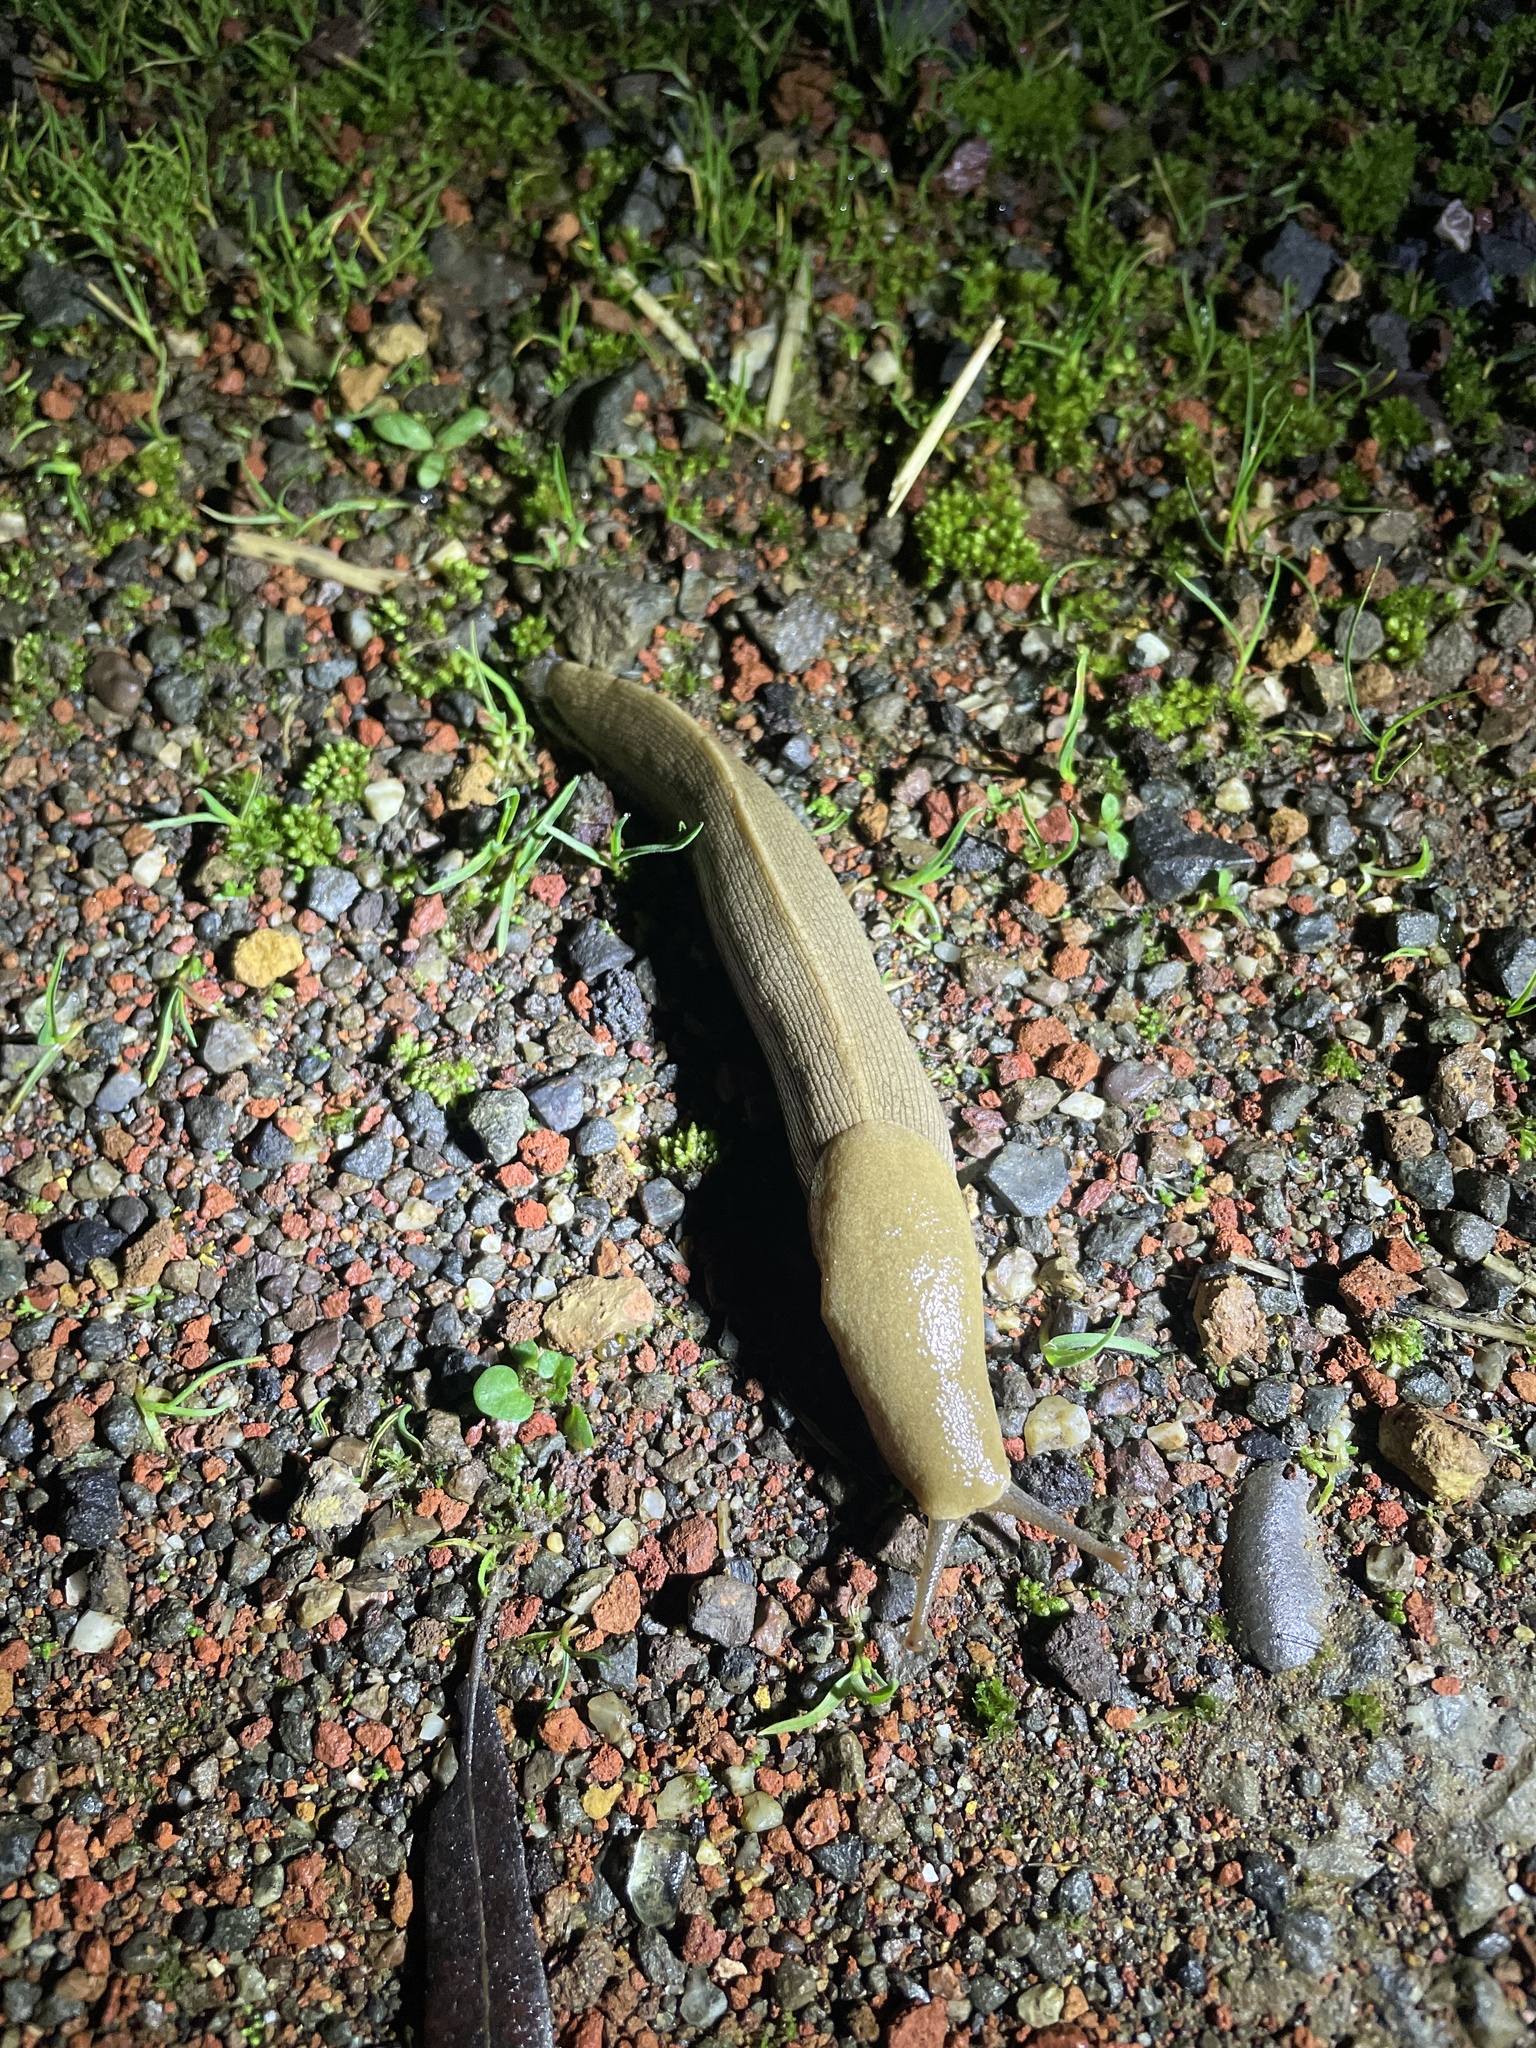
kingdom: Animalia
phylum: Mollusca
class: Gastropoda
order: Stylommatophora
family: Ariolimacidae
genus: Ariolimax
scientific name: Ariolimax buttoni
